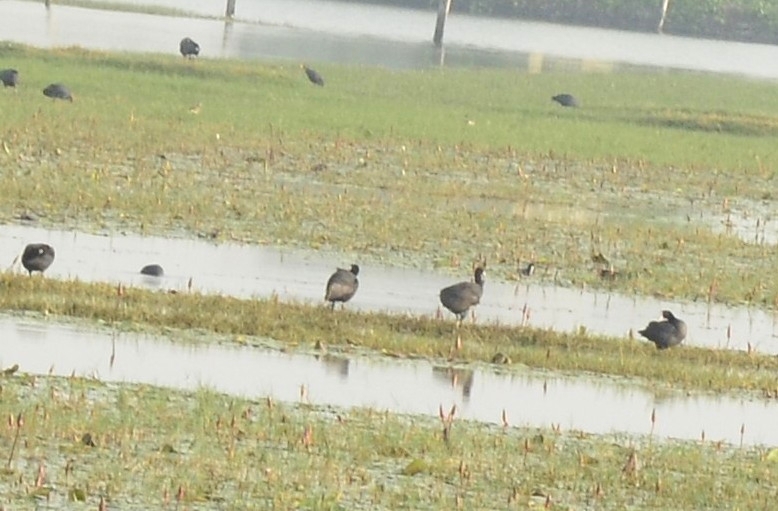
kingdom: Animalia
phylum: Chordata
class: Aves
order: Gruiformes
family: Rallidae
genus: Fulica
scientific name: Fulica atra
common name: Eurasian coot
